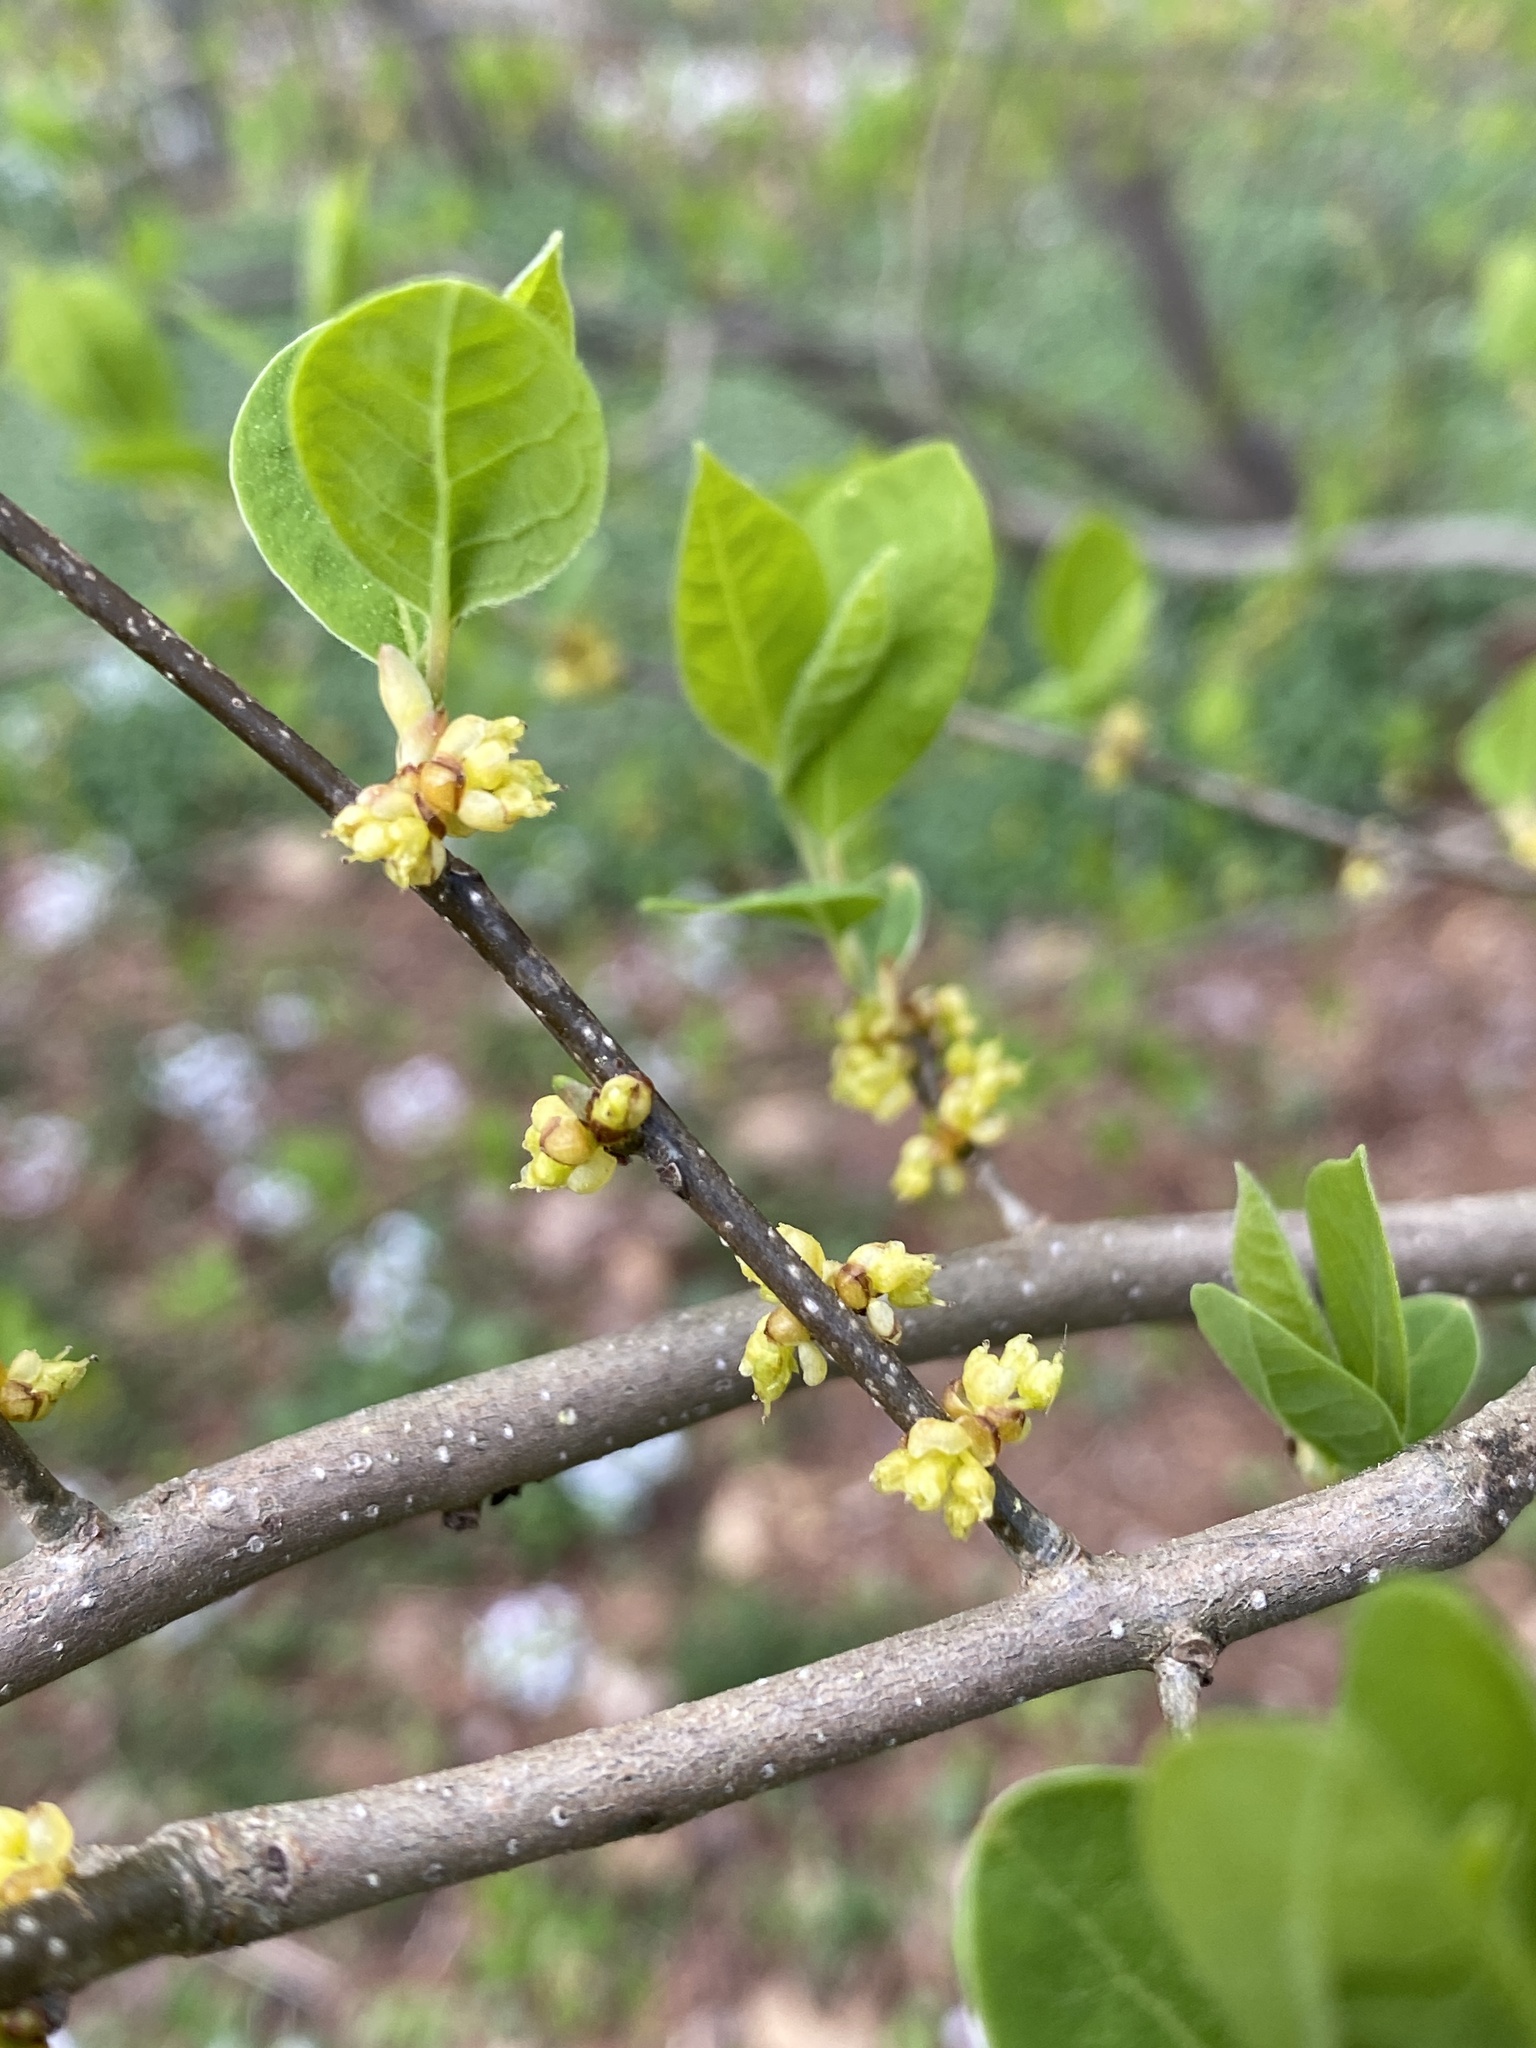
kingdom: Plantae
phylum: Tracheophyta
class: Magnoliopsida
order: Laurales
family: Lauraceae
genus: Lindera
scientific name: Lindera benzoin
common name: Spicebush
